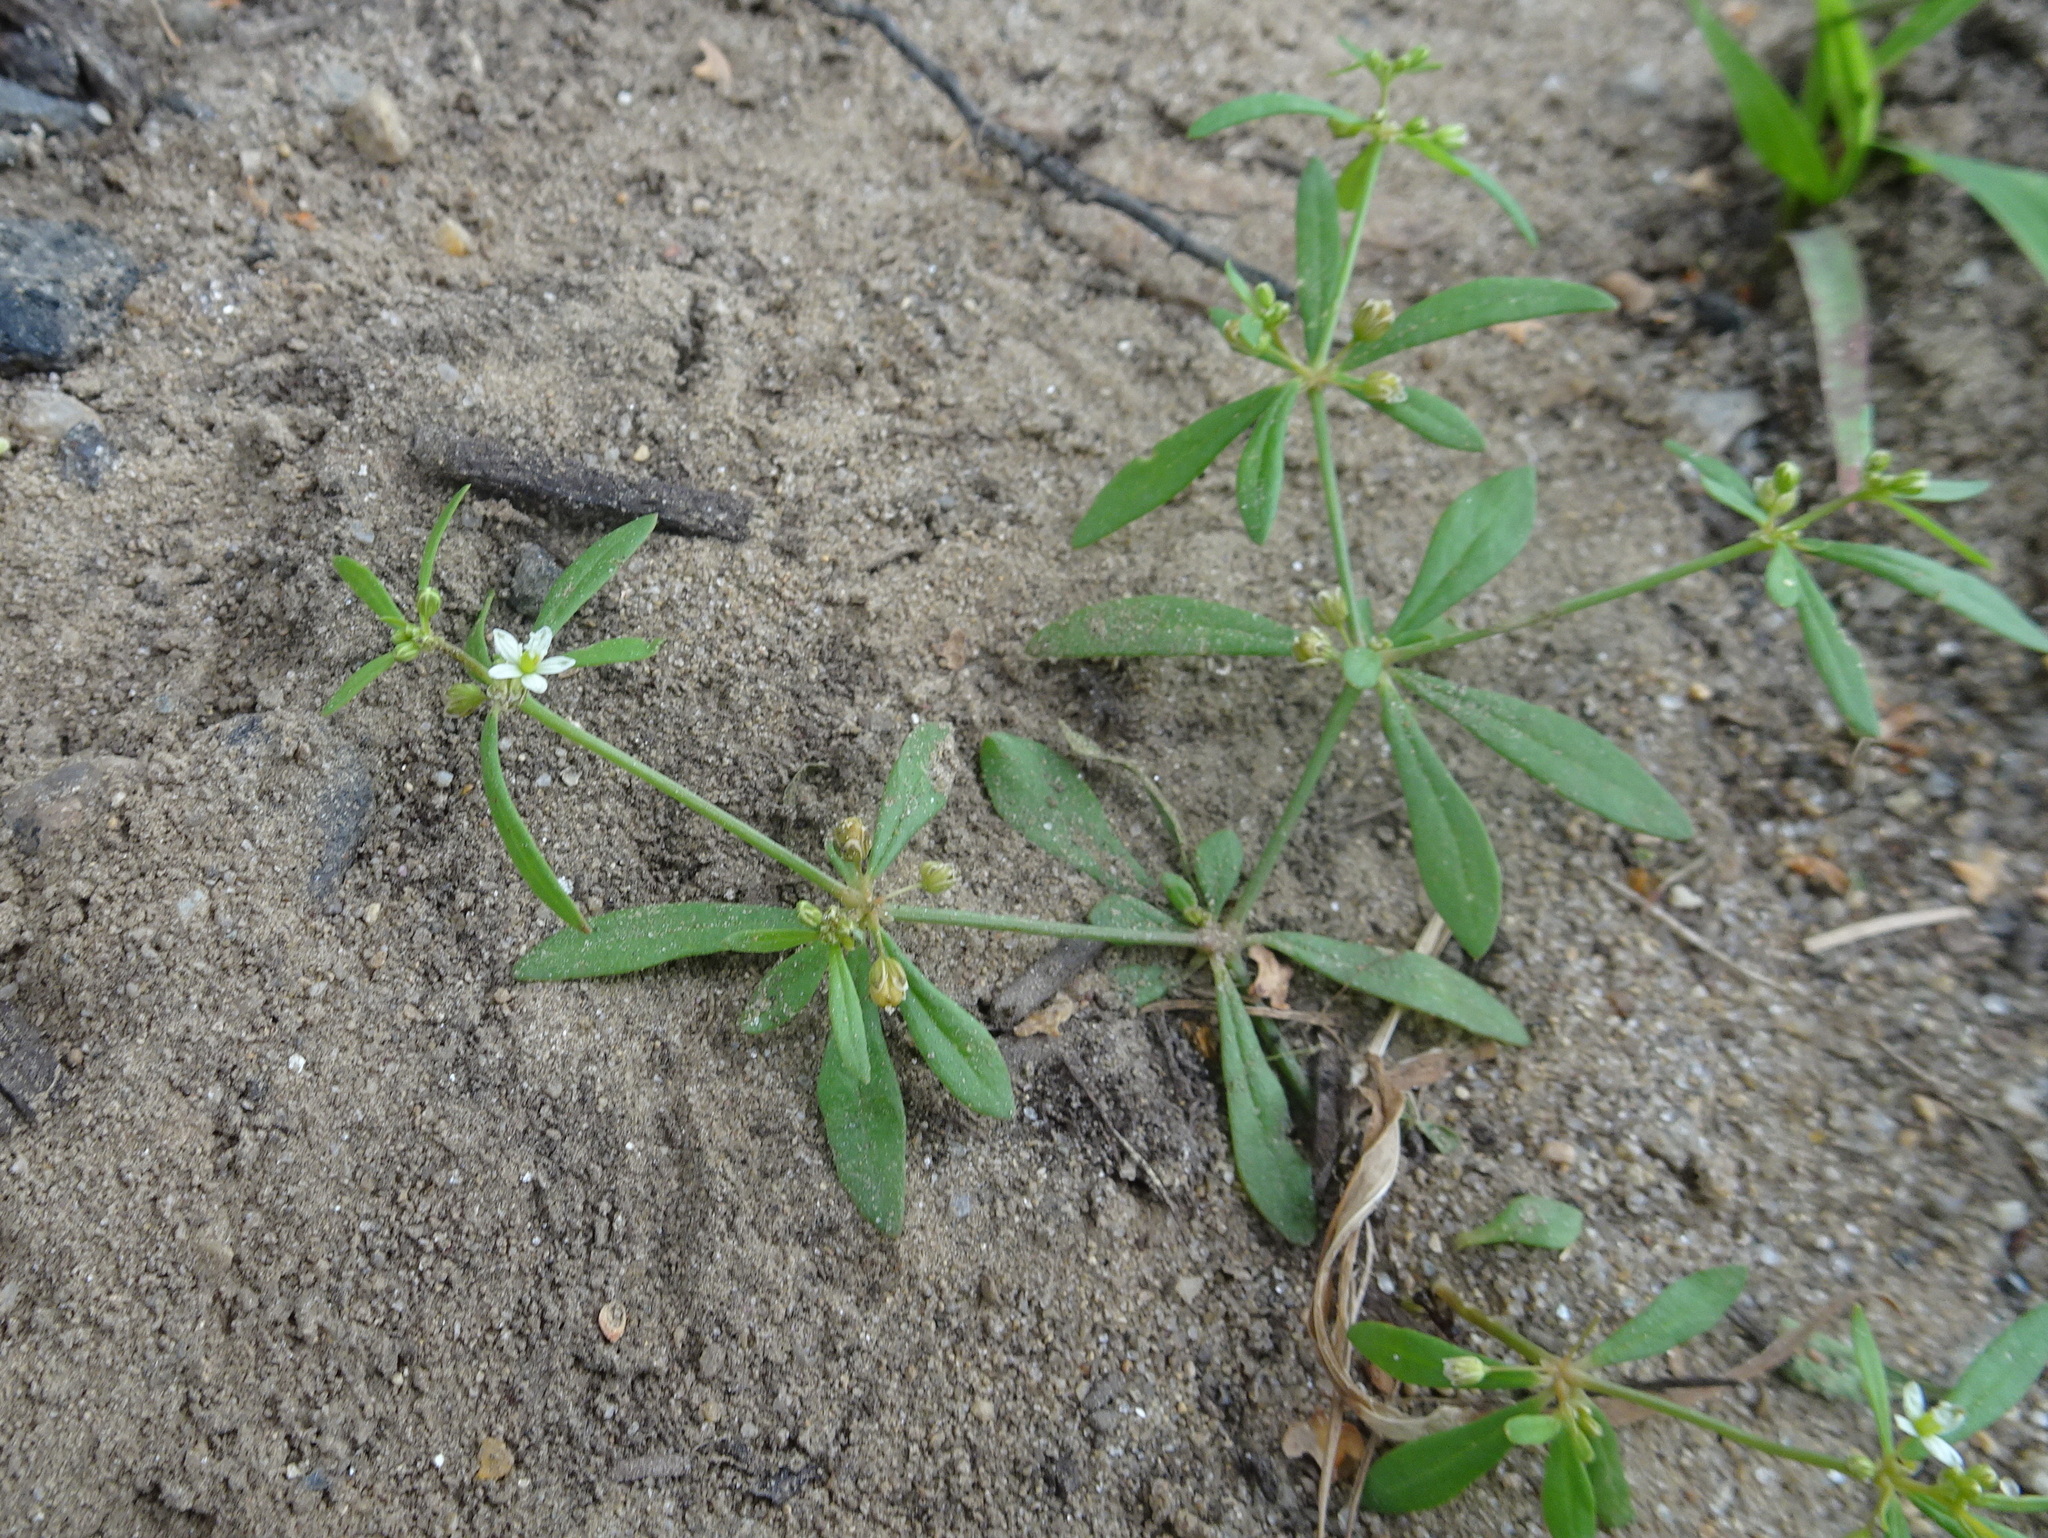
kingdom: Plantae
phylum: Tracheophyta
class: Magnoliopsida
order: Caryophyllales
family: Molluginaceae
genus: Mollugo
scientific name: Mollugo verticillata
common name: Green carpetweed
